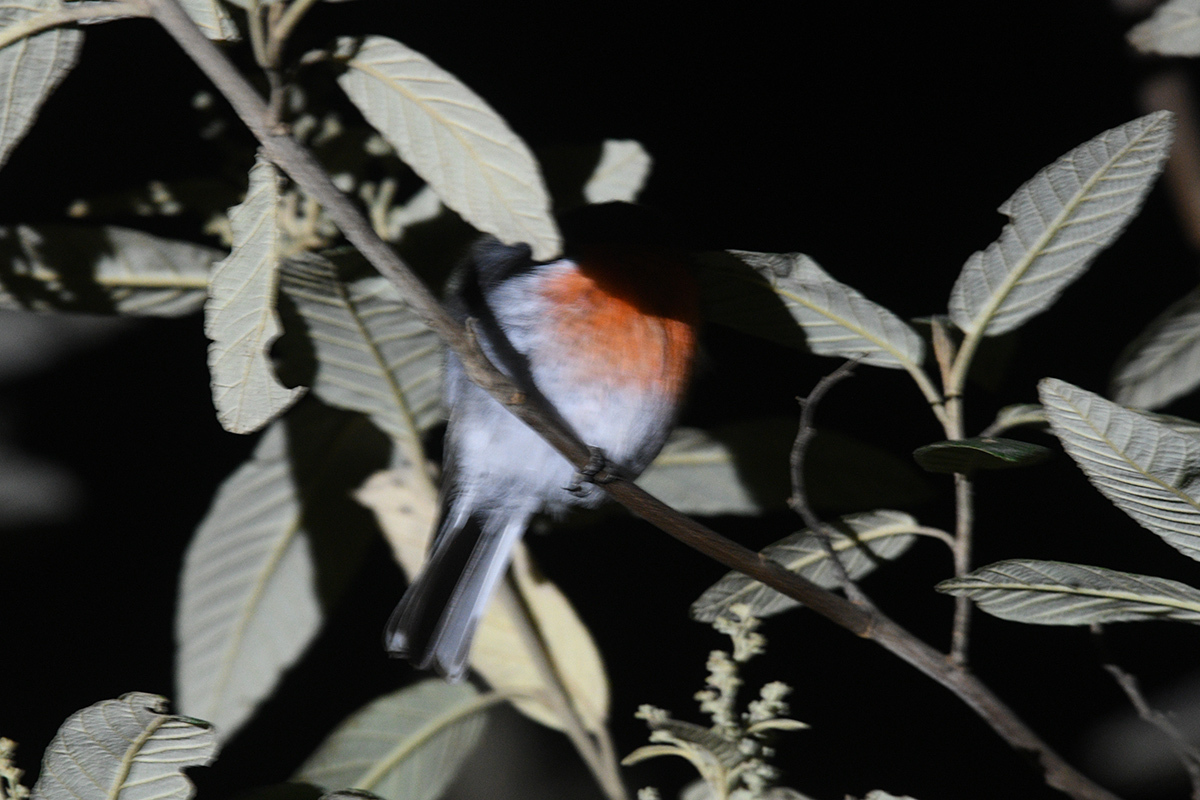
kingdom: Animalia
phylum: Chordata
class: Aves
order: Passeriformes
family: Petroicidae
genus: Petroica
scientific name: Petroica boodang
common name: Scarlet robin
